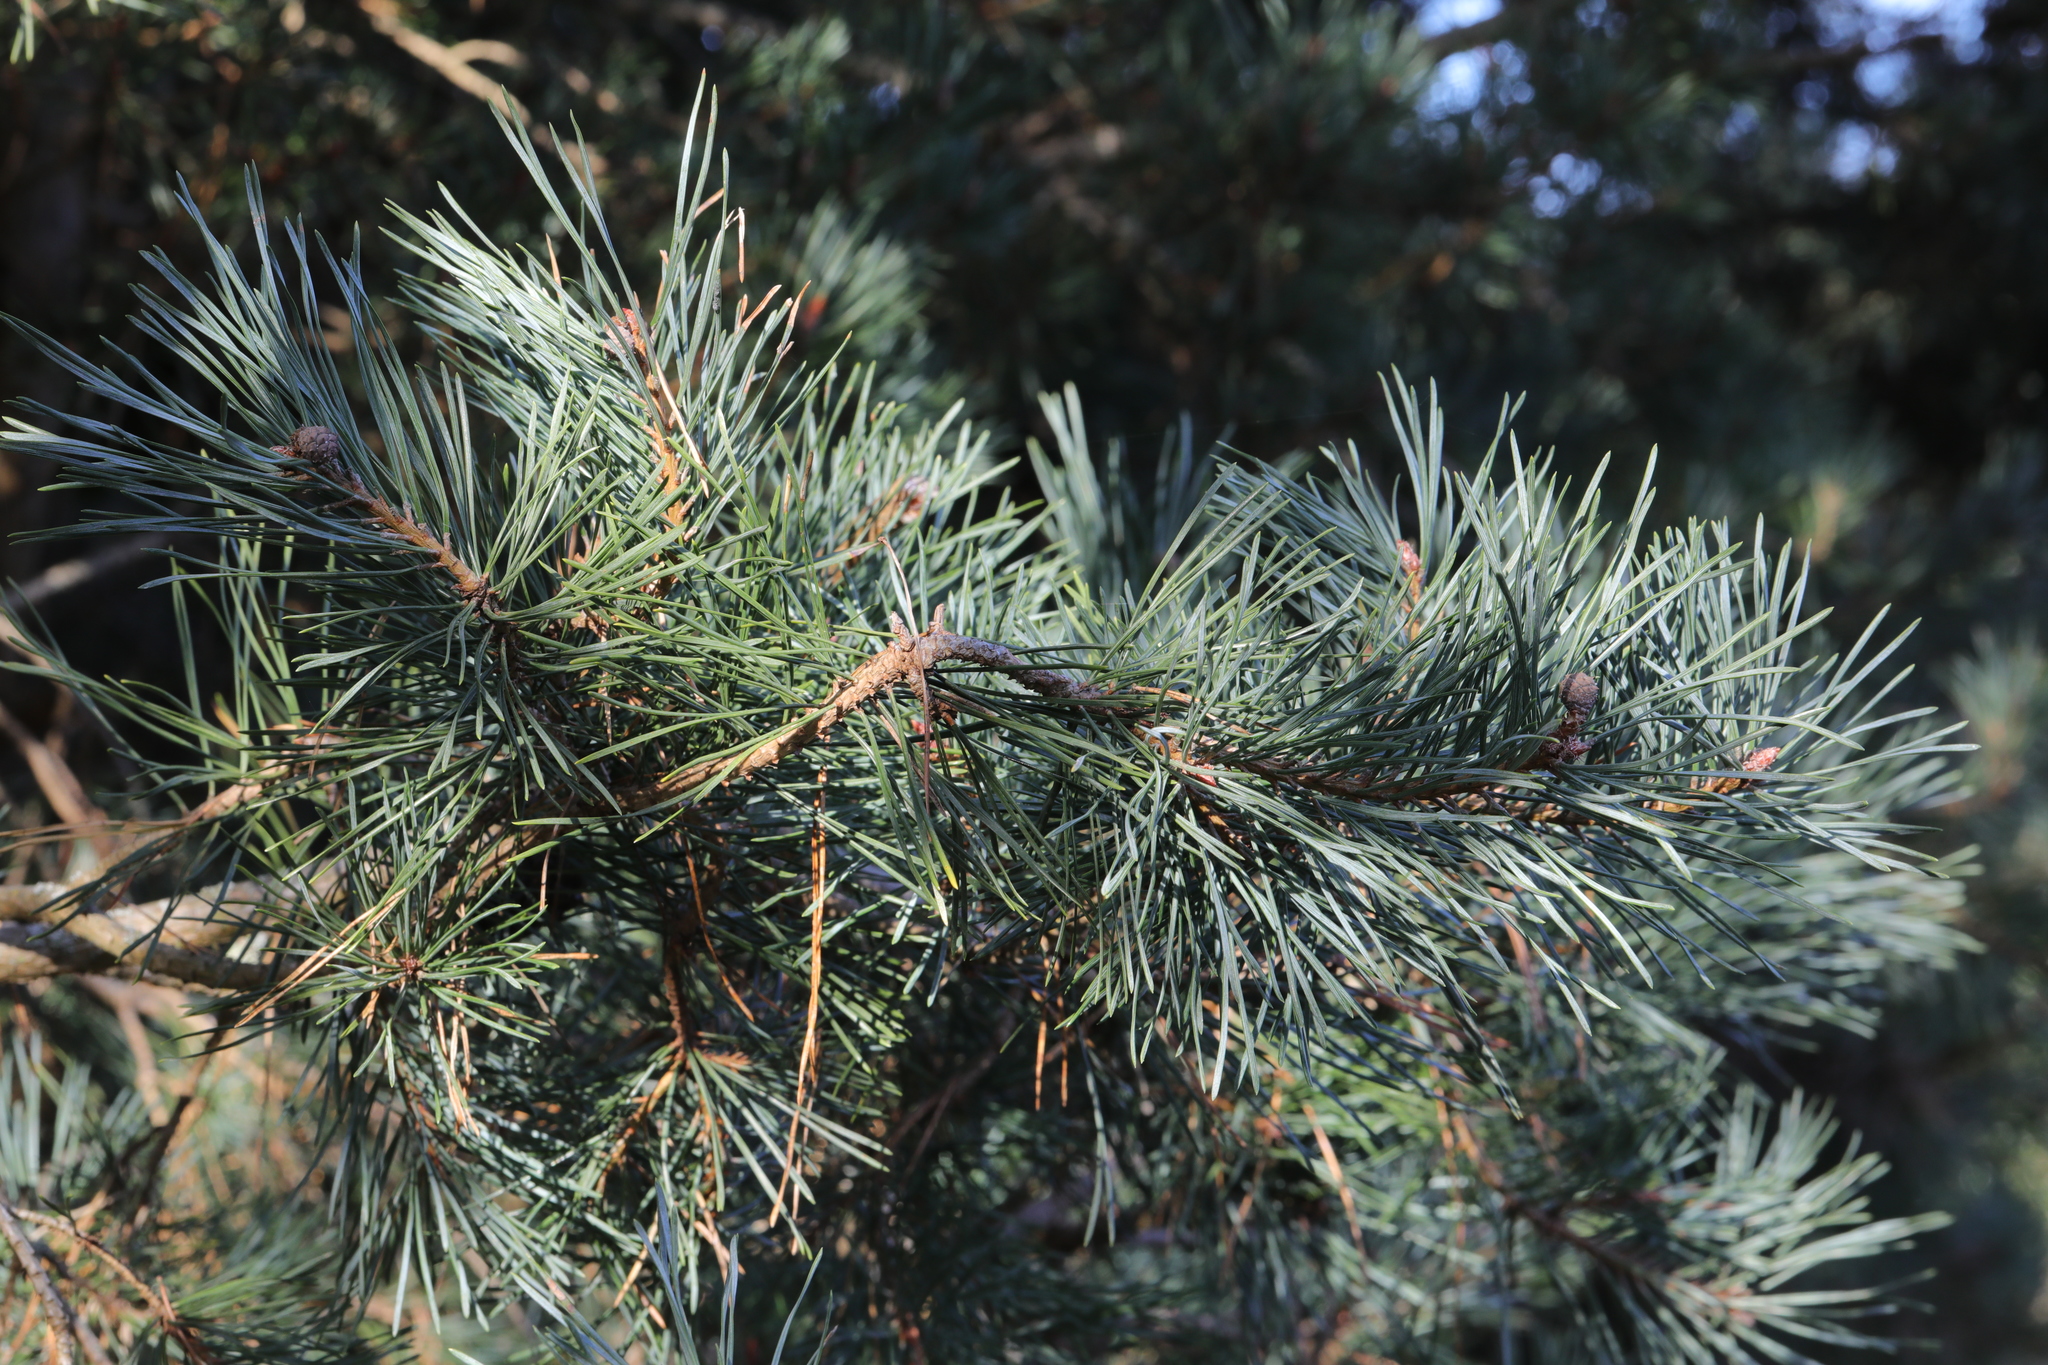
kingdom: Plantae
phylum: Tracheophyta
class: Pinopsida
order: Pinales
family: Pinaceae
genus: Pinus
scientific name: Pinus sylvestris
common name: Scots pine
